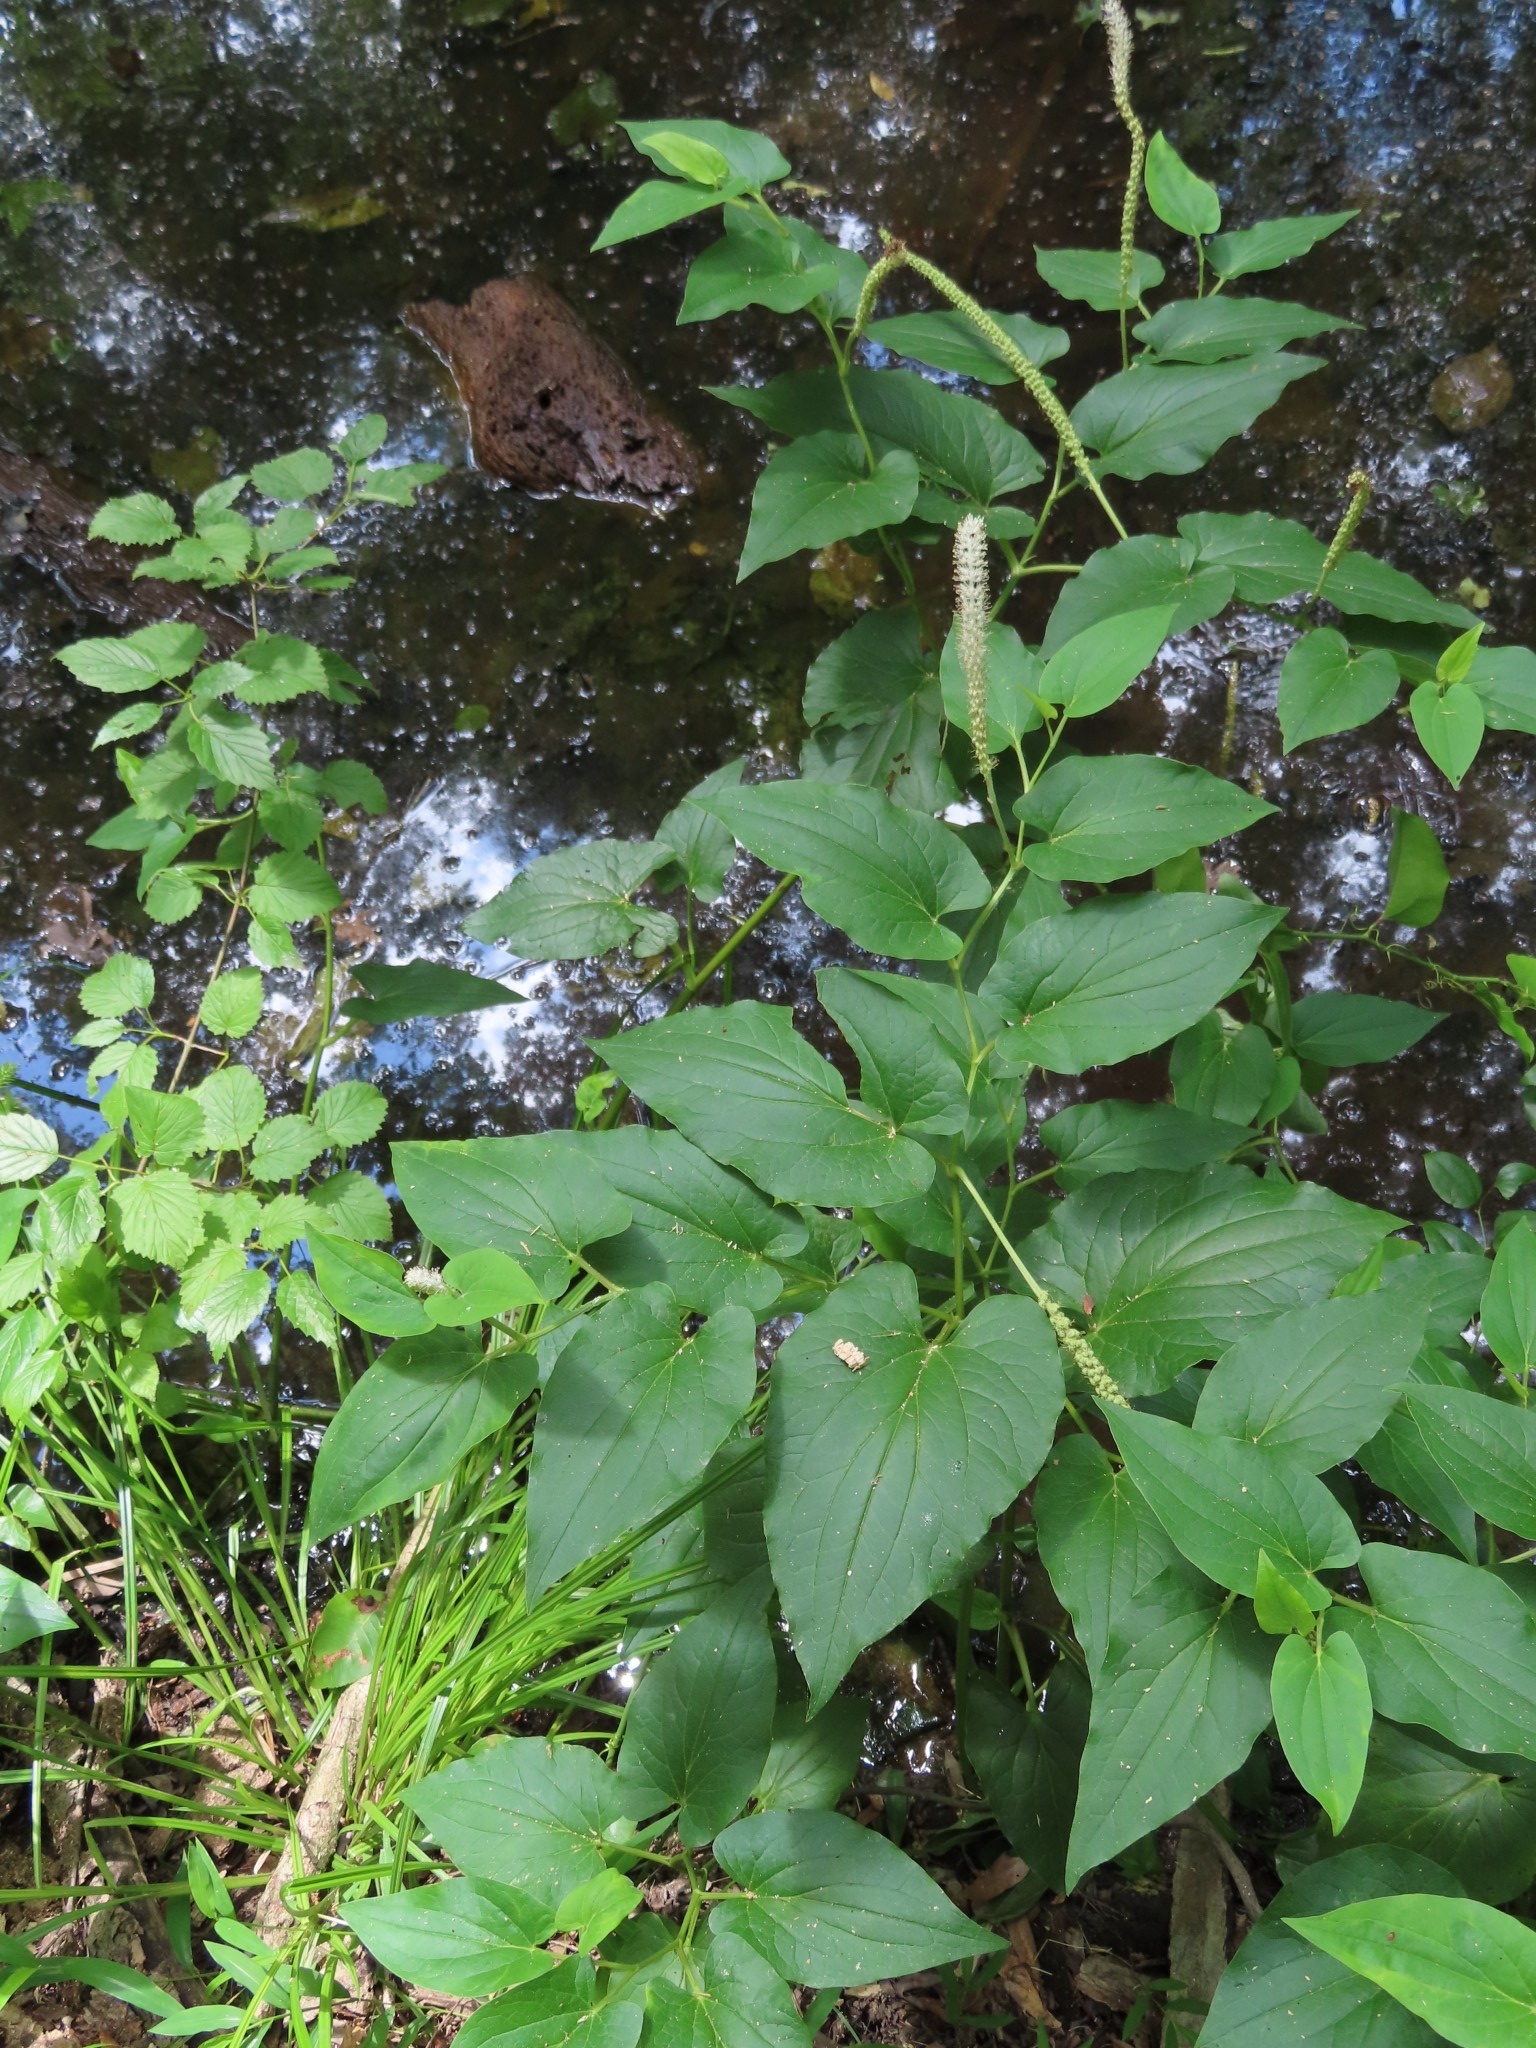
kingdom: Plantae
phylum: Tracheophyta
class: Magnoliopsida
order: Piperales
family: Saururaceae
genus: Saururus
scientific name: Saururus cernuus
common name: Lizard's-tail
